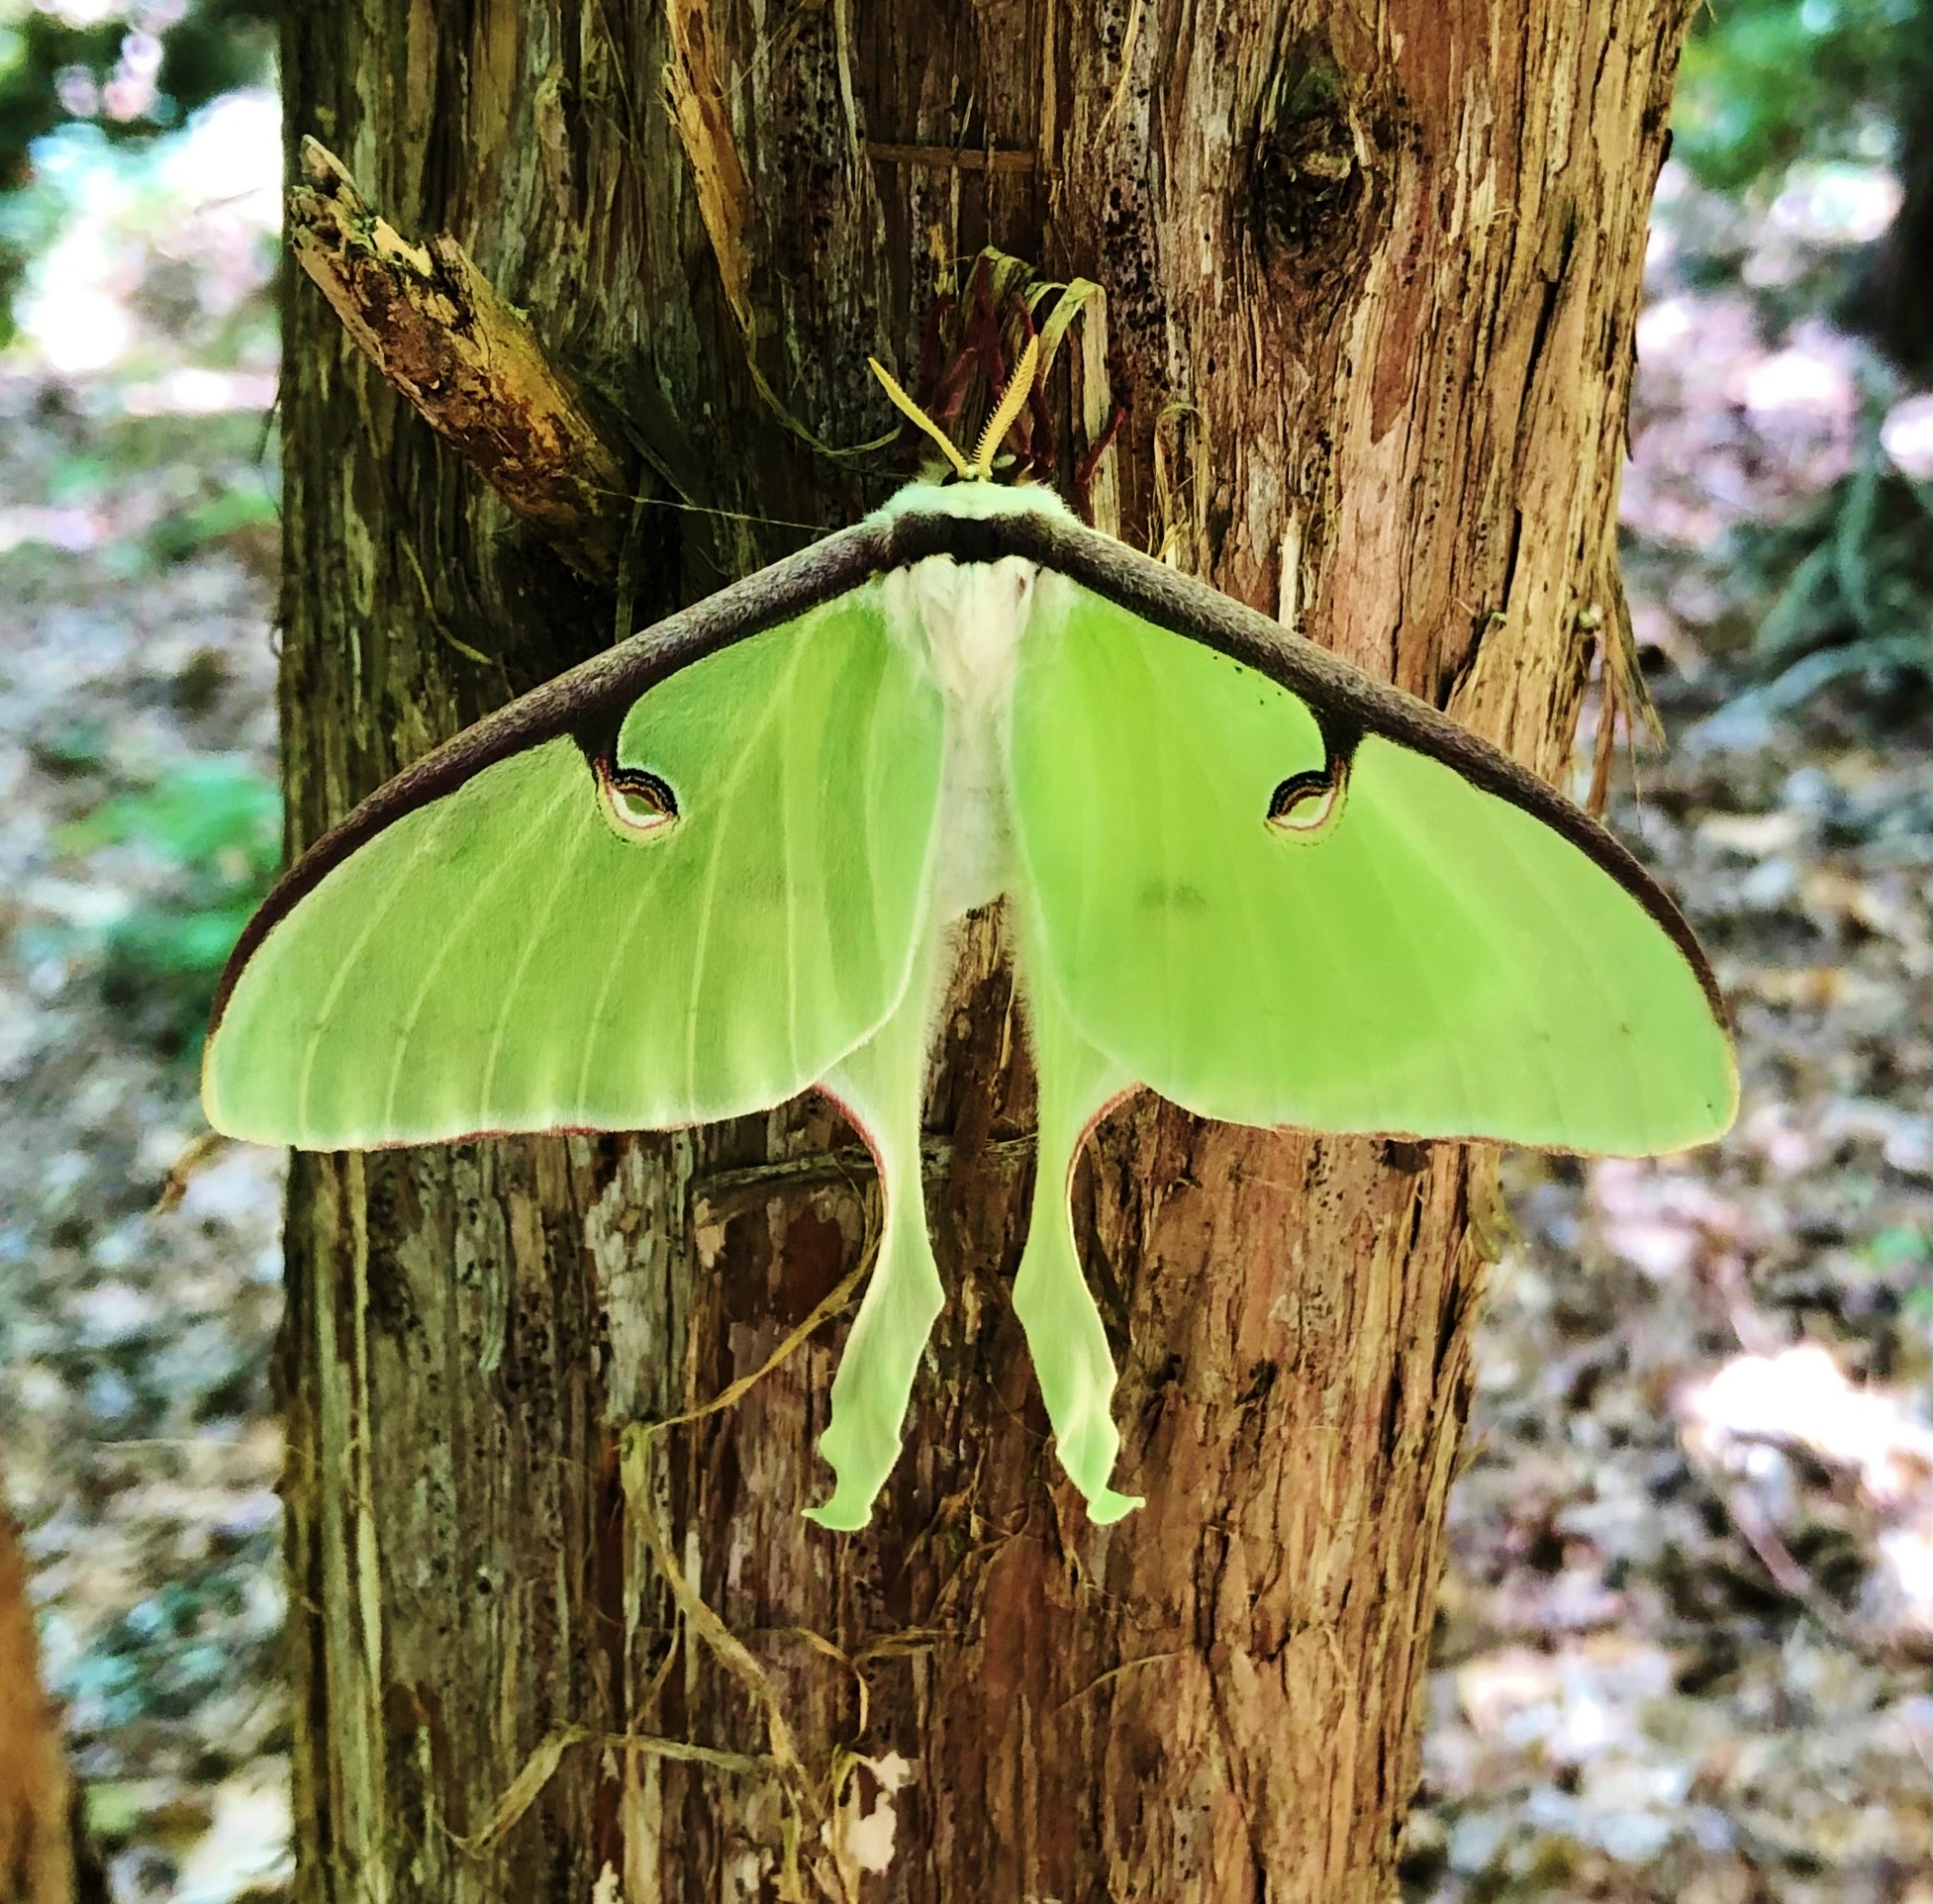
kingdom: Animalia
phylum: Arthropoda
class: Insecta
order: Lepidoptera
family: Saturniidae
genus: Actias
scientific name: Actias luna
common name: Luna moth
